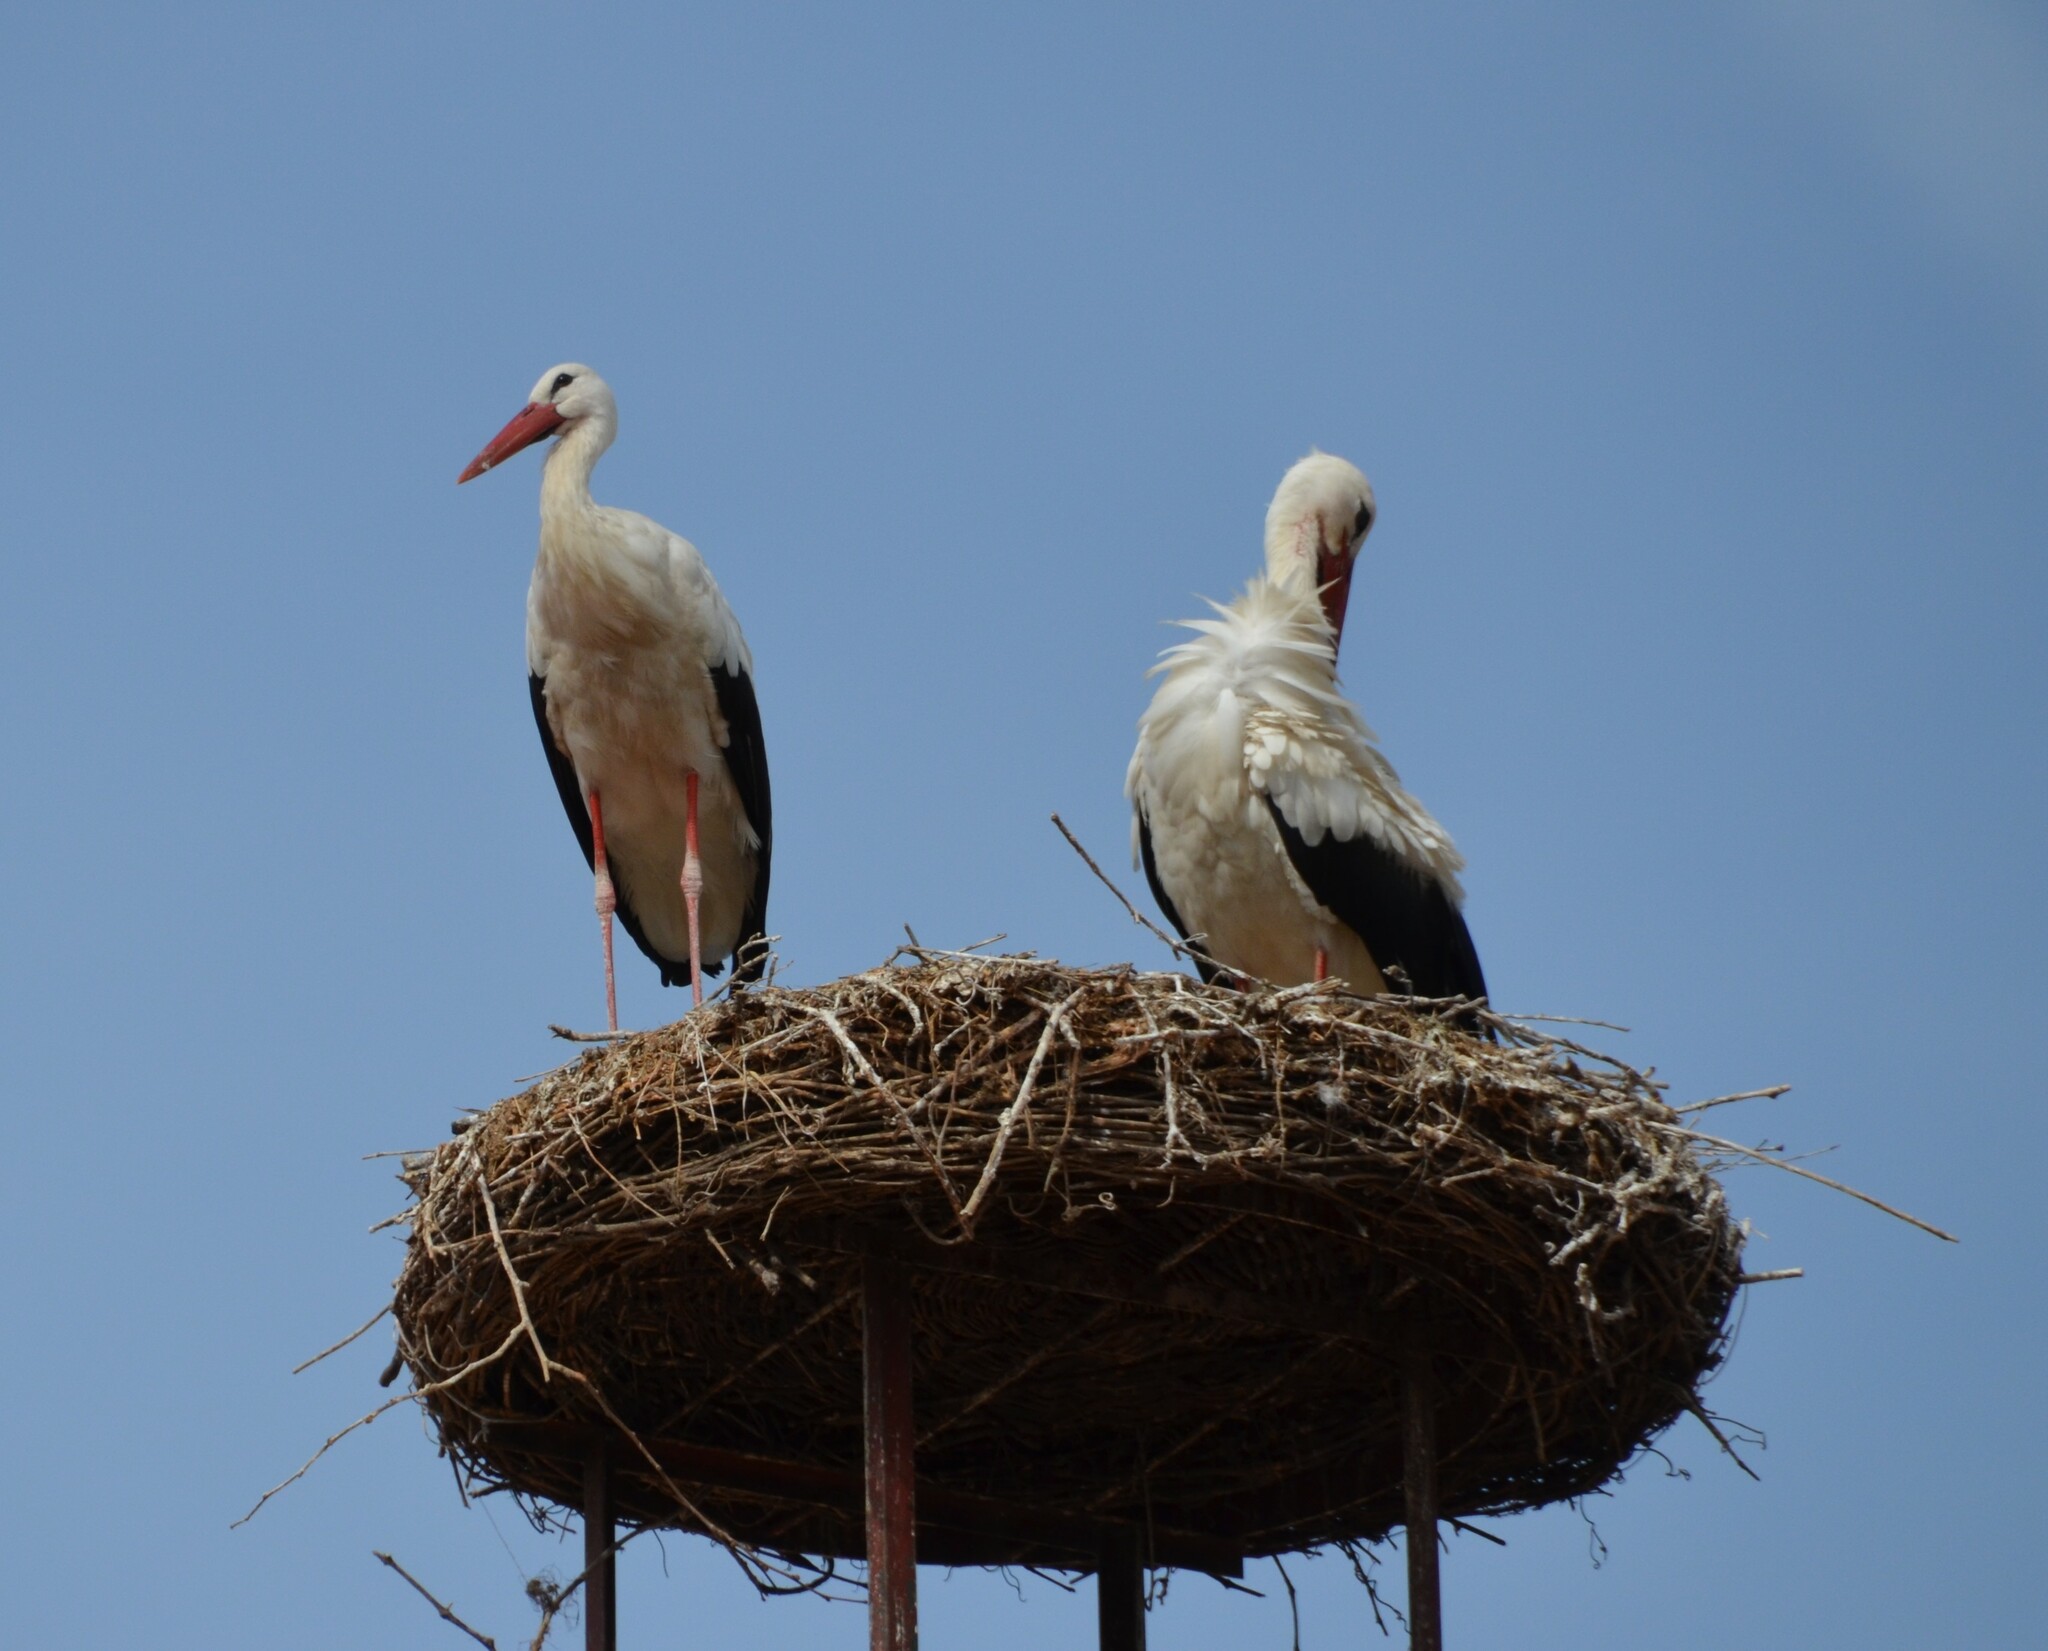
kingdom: Animalia
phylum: Chordata
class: Aves
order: Ciconiiformes
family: Ciconiidae
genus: Ciconia
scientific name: Ciconia ciconia
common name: White stork
